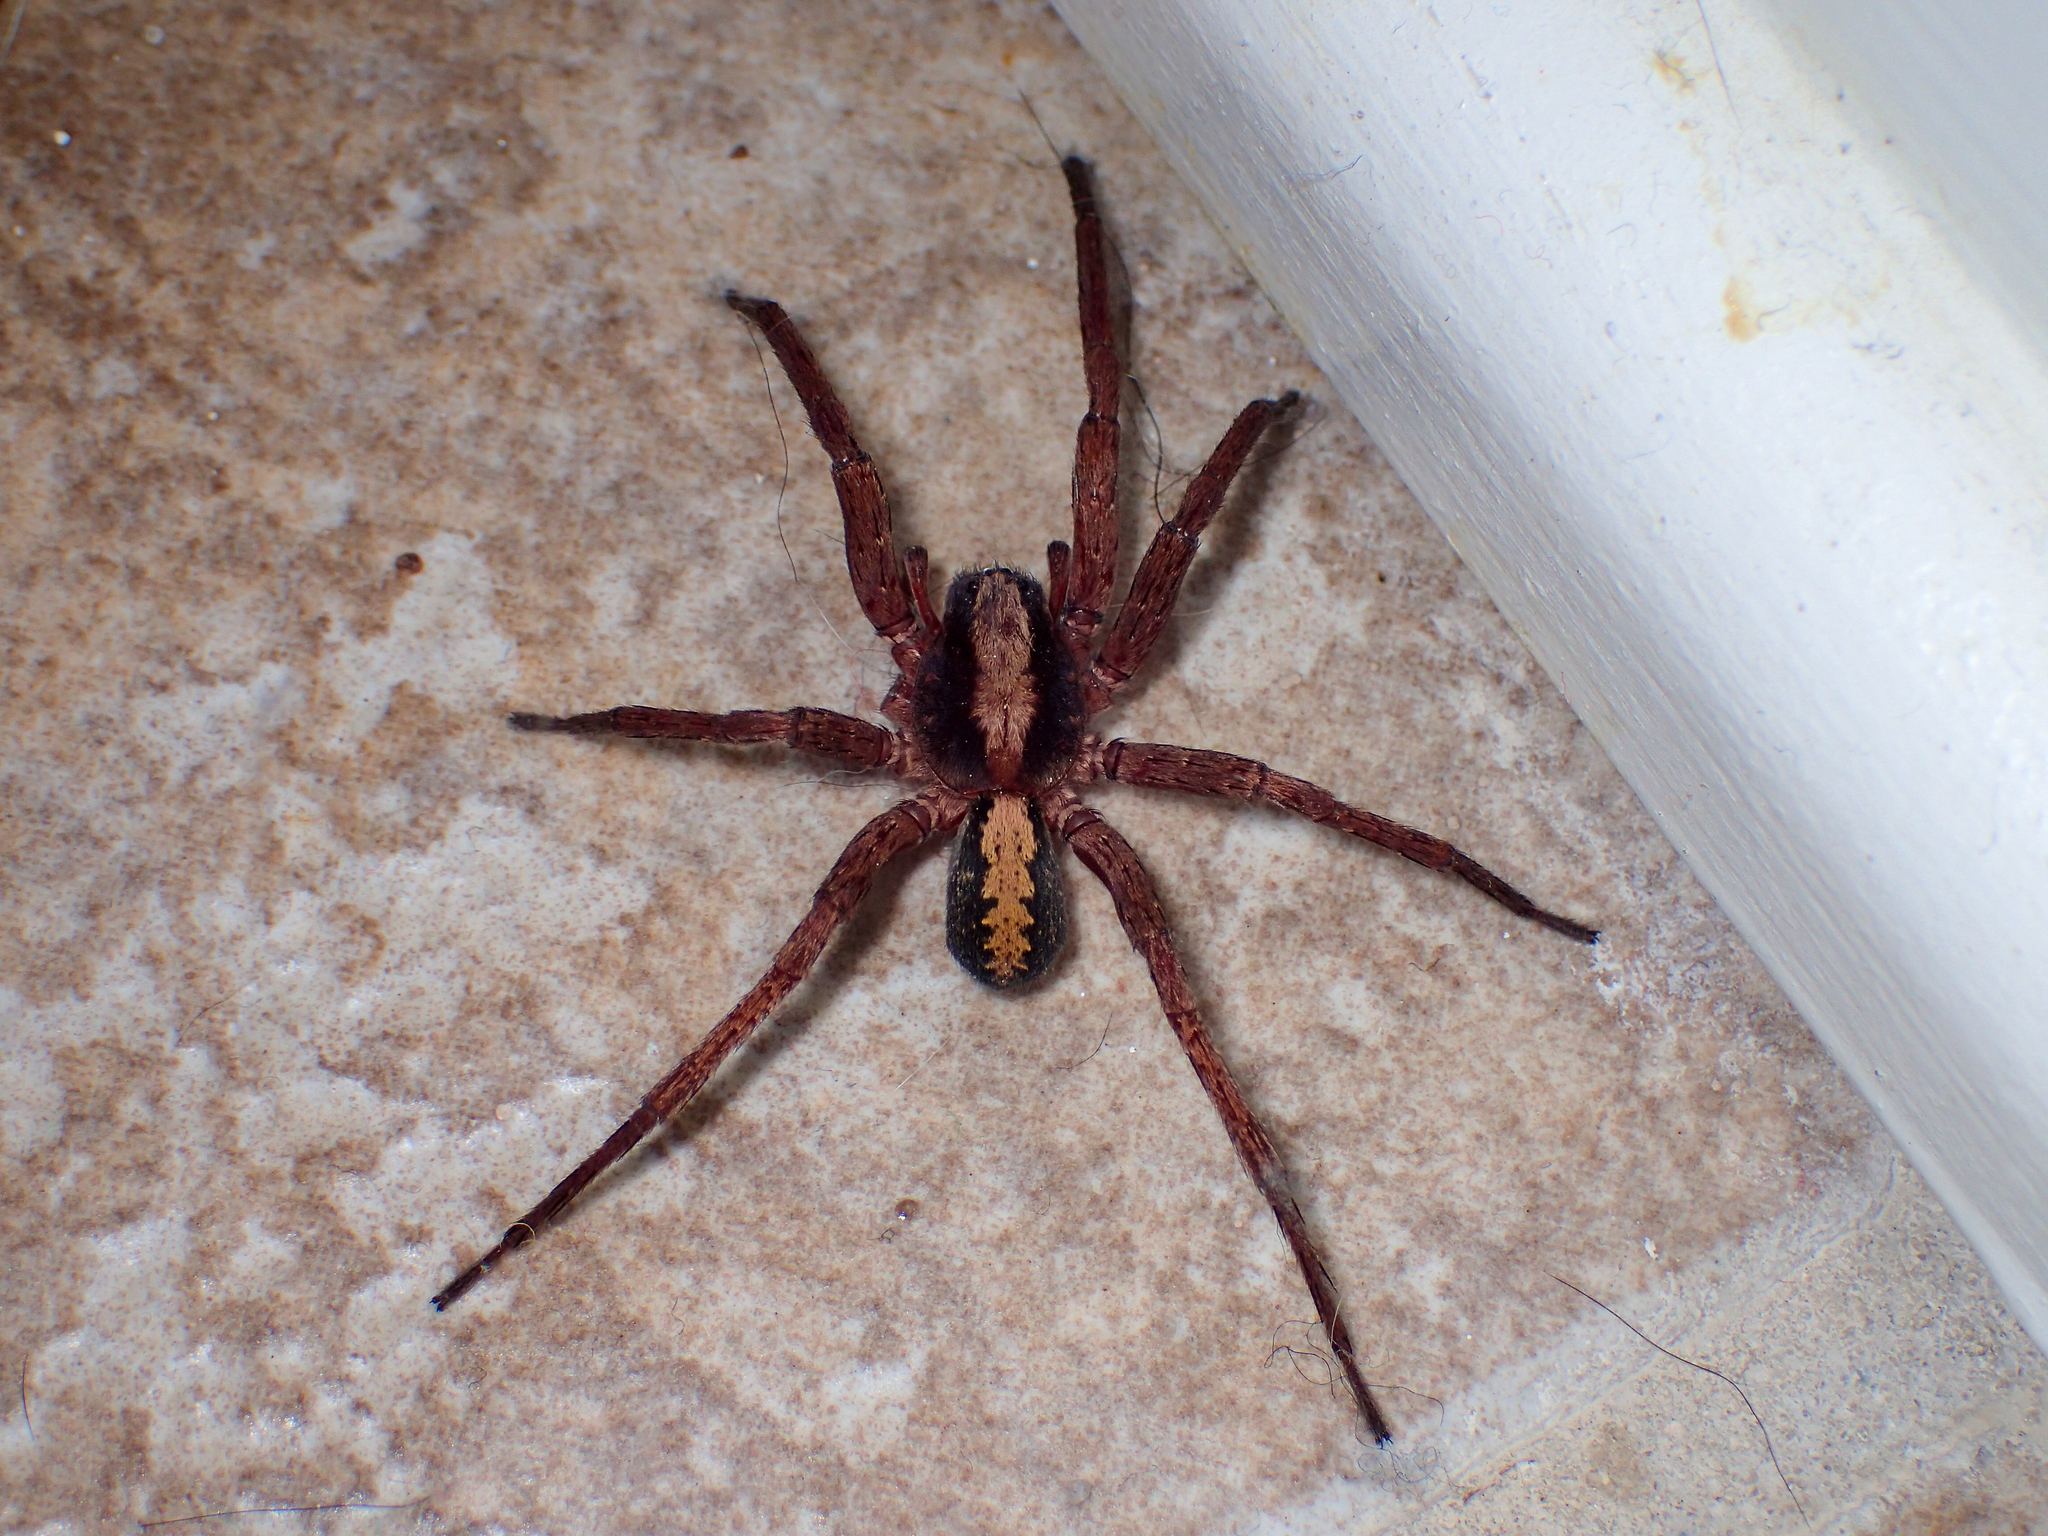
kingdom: Animalia
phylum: Arthropoda
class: Arachnida
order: Araneae
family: Ctenidae
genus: Ctenus
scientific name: Ctenus hibernalis
